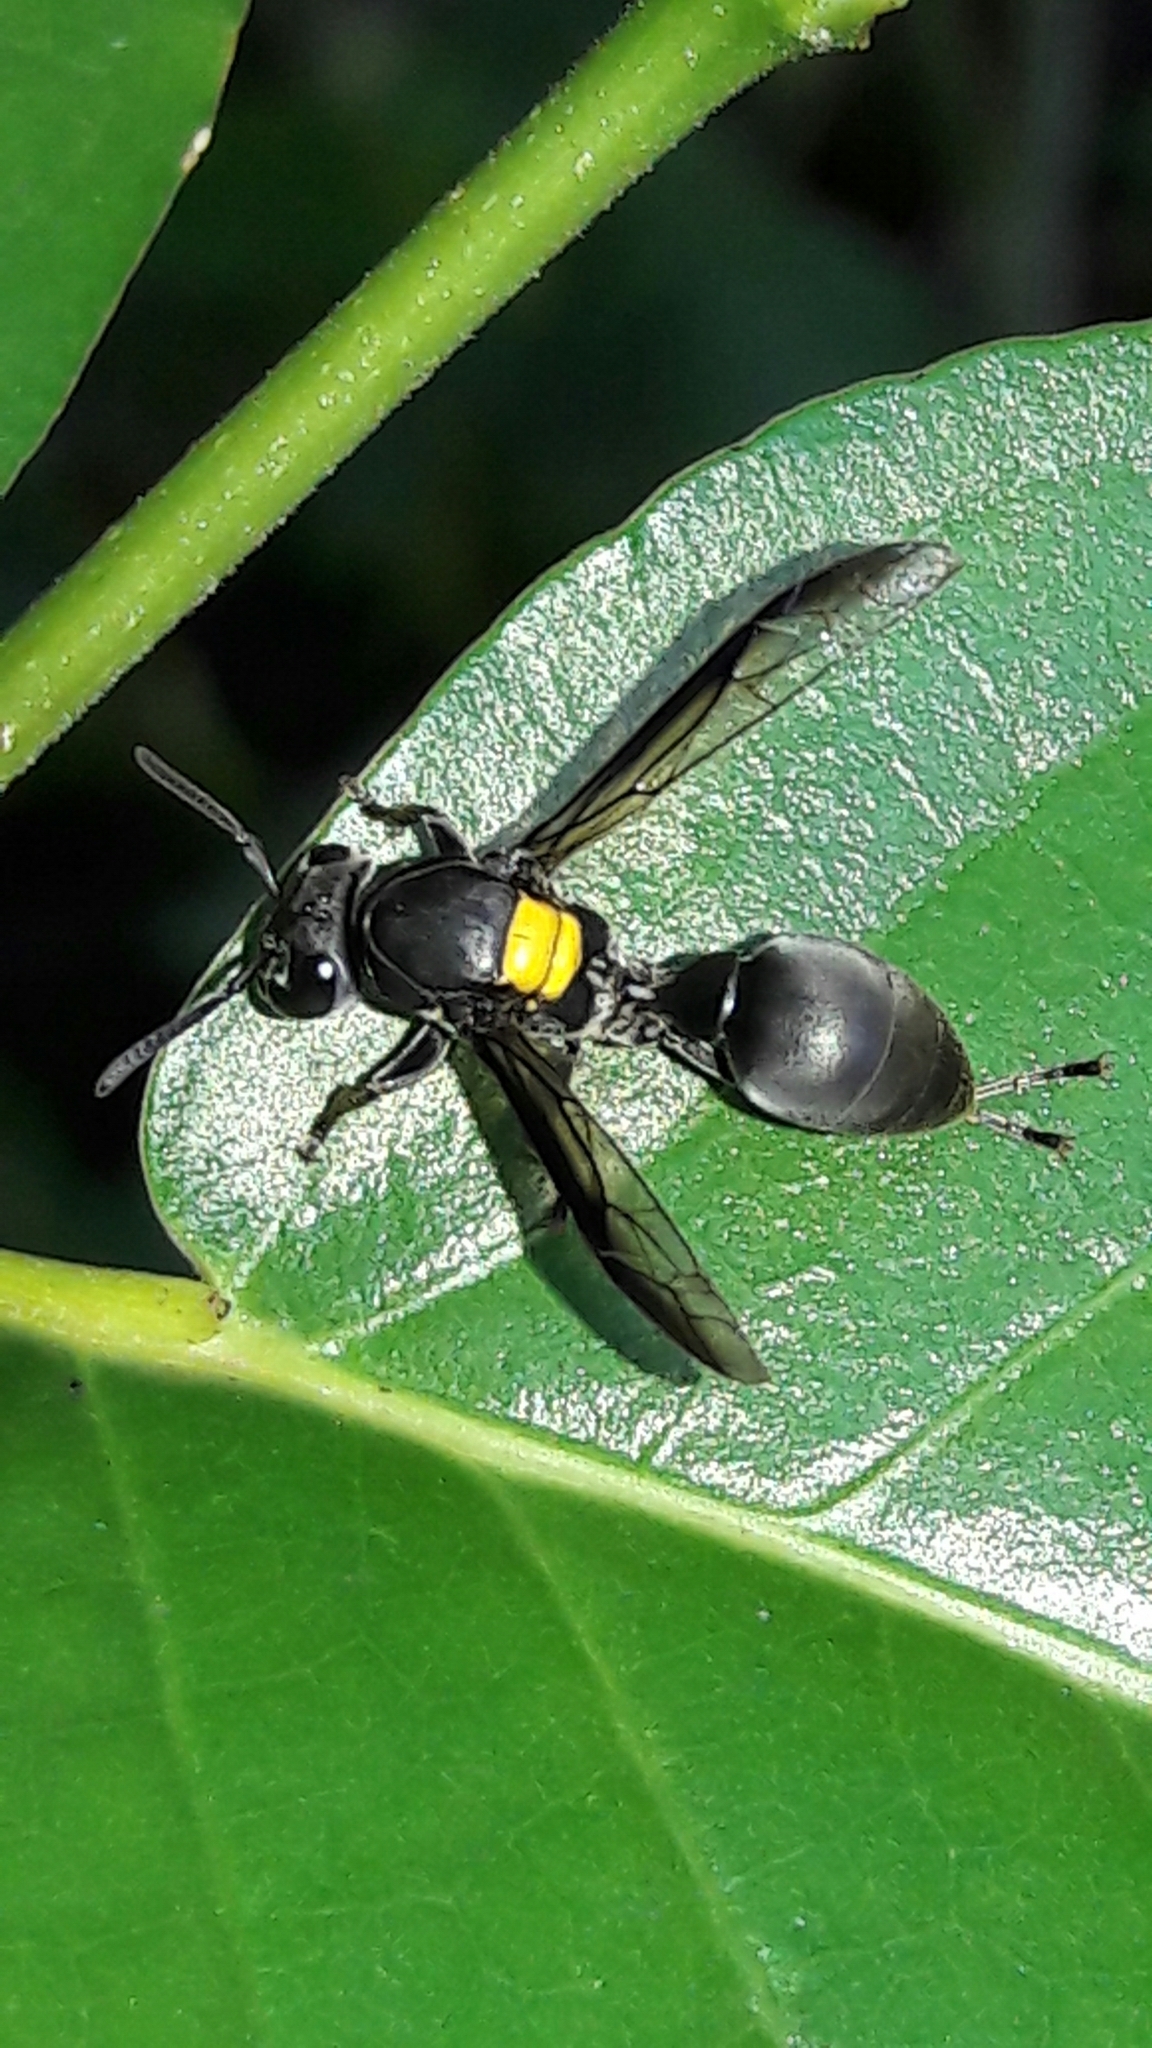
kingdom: Animalia
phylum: Arthropoda
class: Insecta
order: Hymenoptera
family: Eumenidae
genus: Polybia
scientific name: Polybia jurinei
